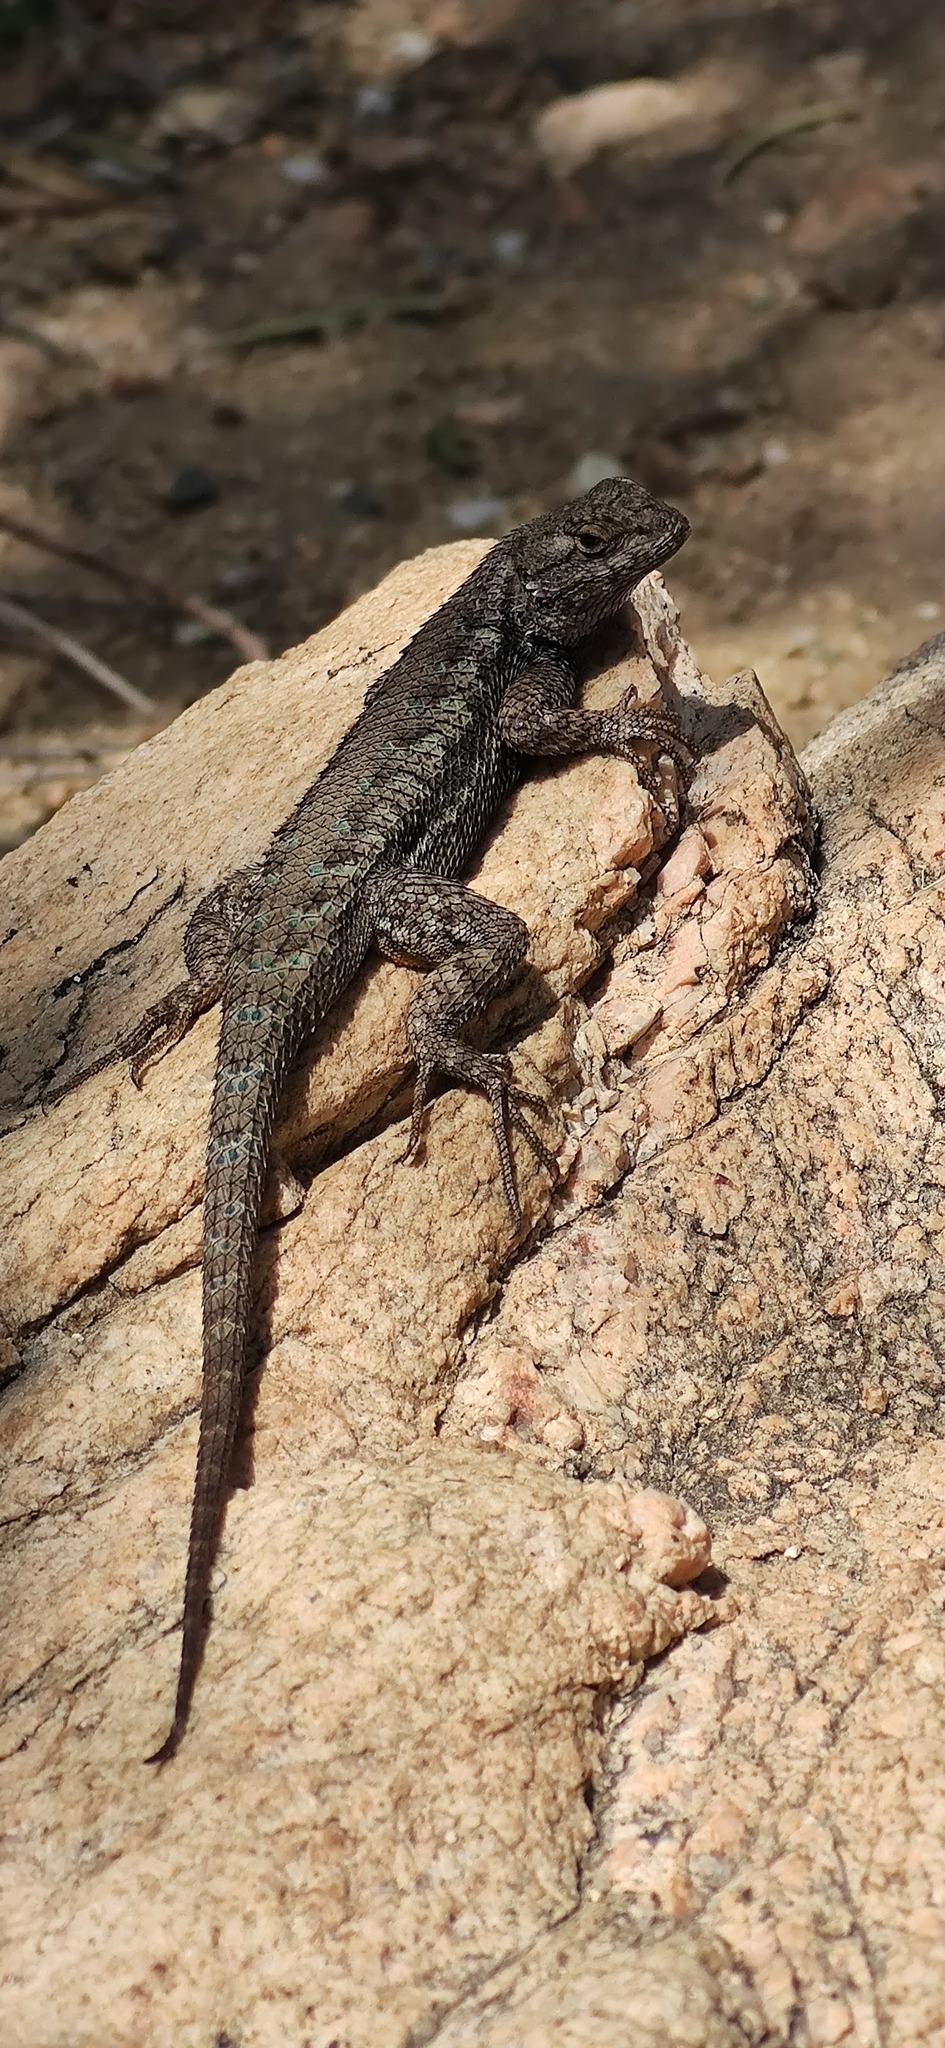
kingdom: Animalia
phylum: Chordata
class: Squamata
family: Phrynosomatidae
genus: Sceloporus
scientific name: Sceloporus occidentalis
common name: Western fence lizard
